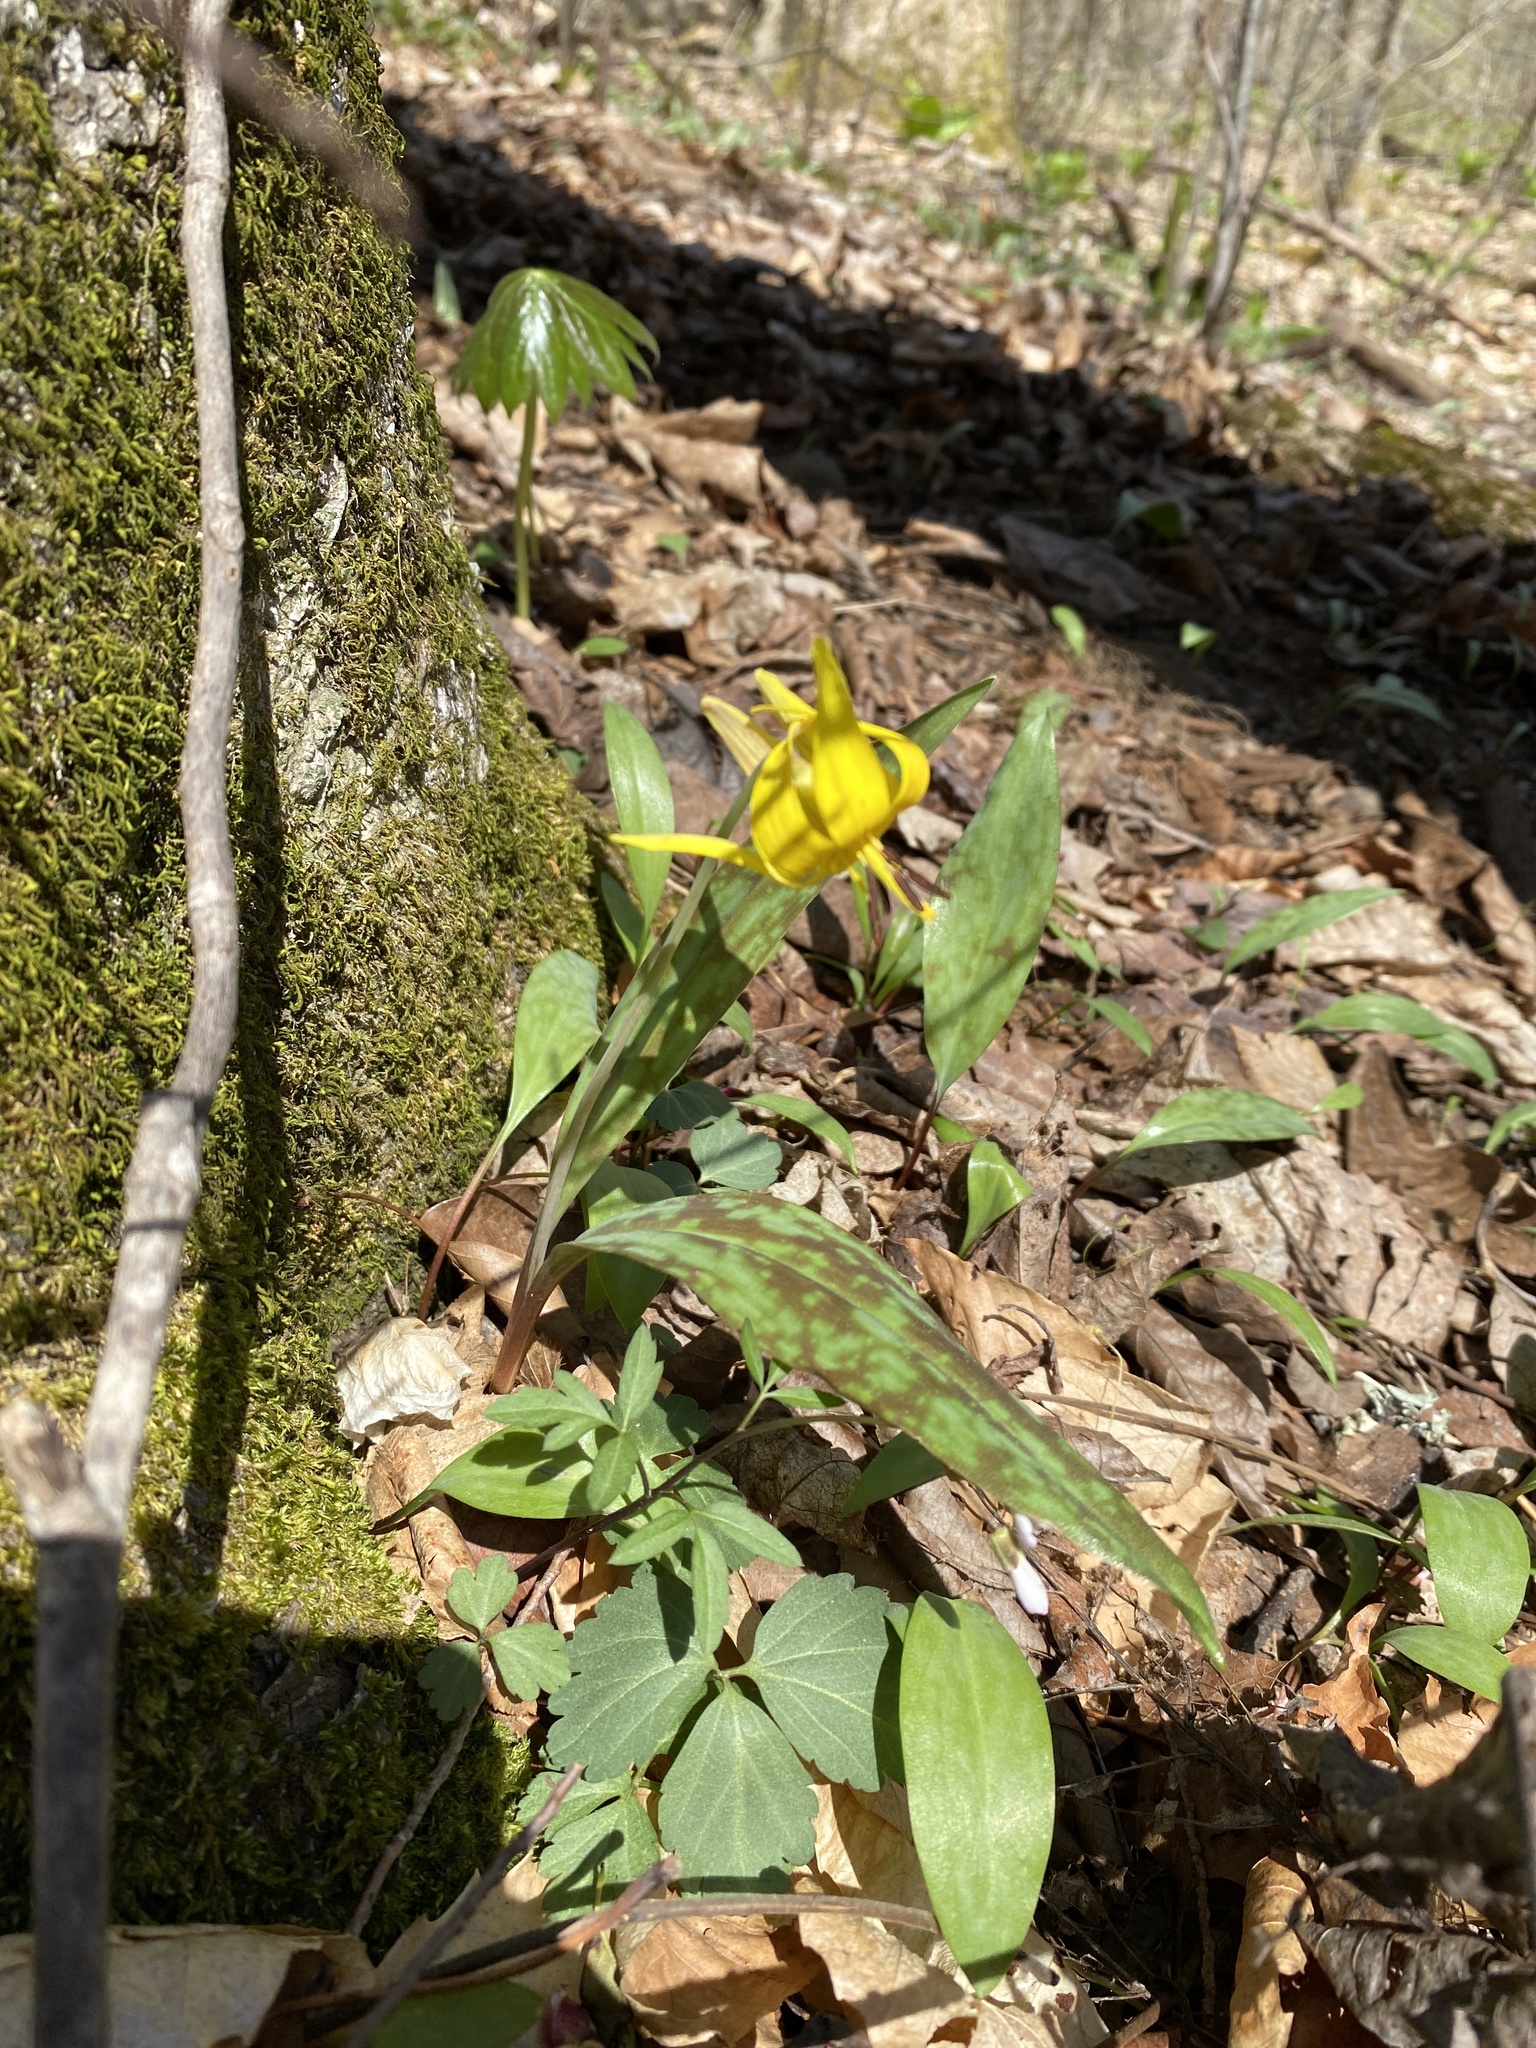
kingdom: Plantae
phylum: Tracheophyta
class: Liliopsida
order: Liliales
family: Liliaceae
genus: Erythronium
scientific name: Erythronium americanum
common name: Yellow adder's-tongue
